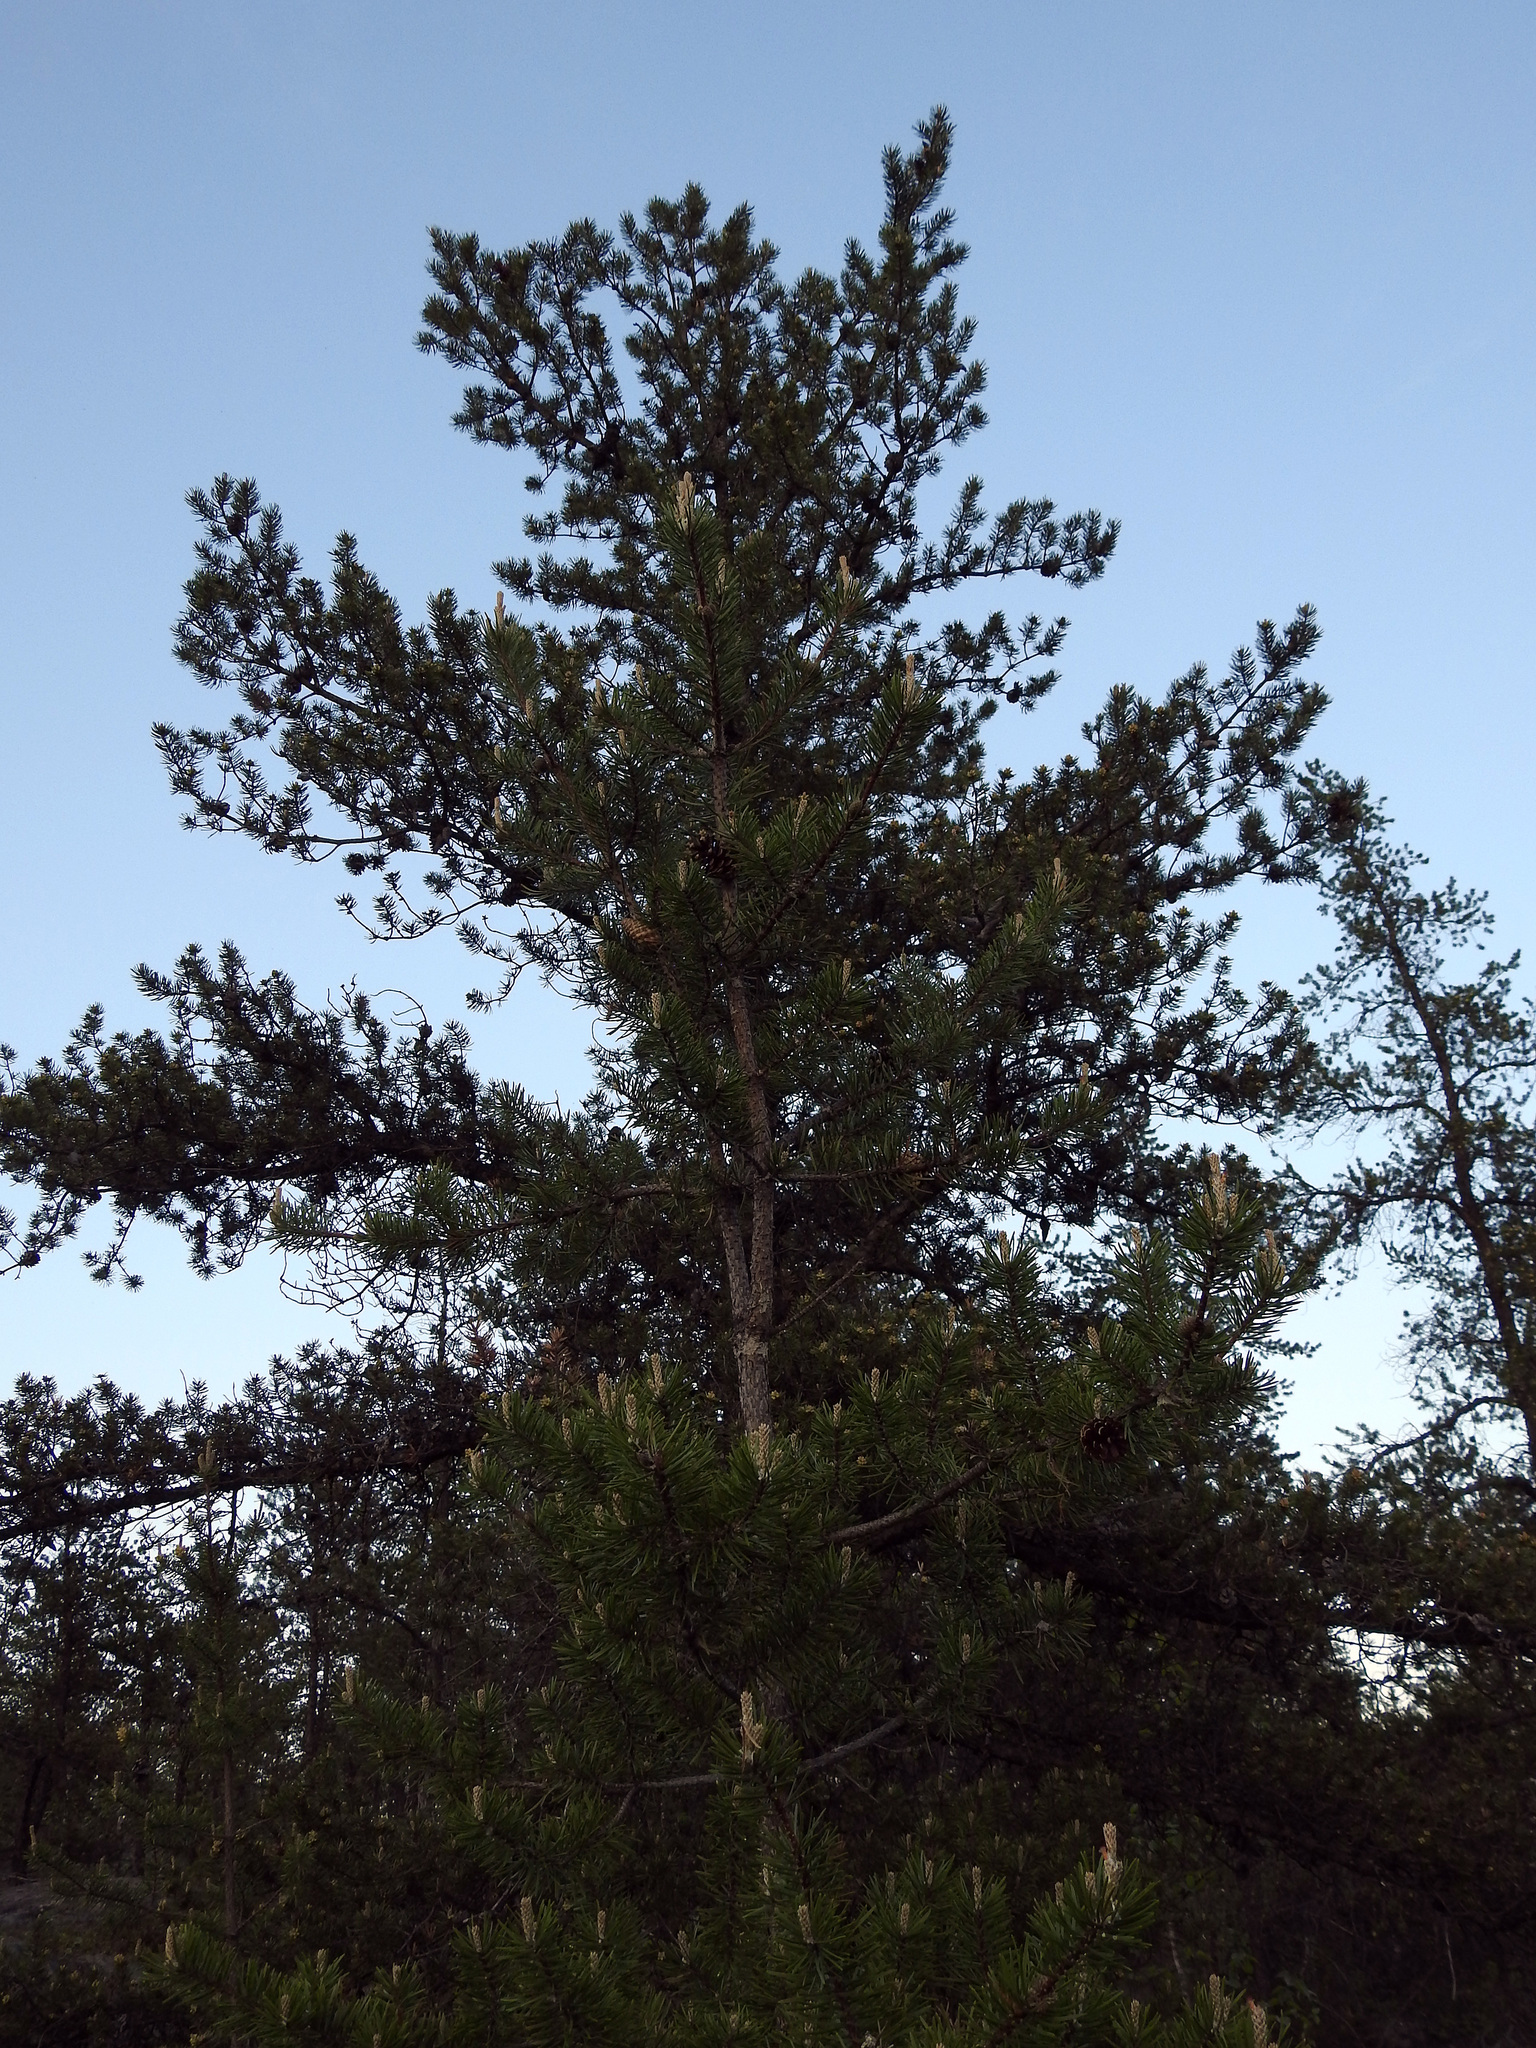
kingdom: Plantae
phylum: Tracheophyta
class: Pinopsida
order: Pinales
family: Pinaceae
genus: Pinus
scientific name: Pinus banksiana
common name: Jack pine
